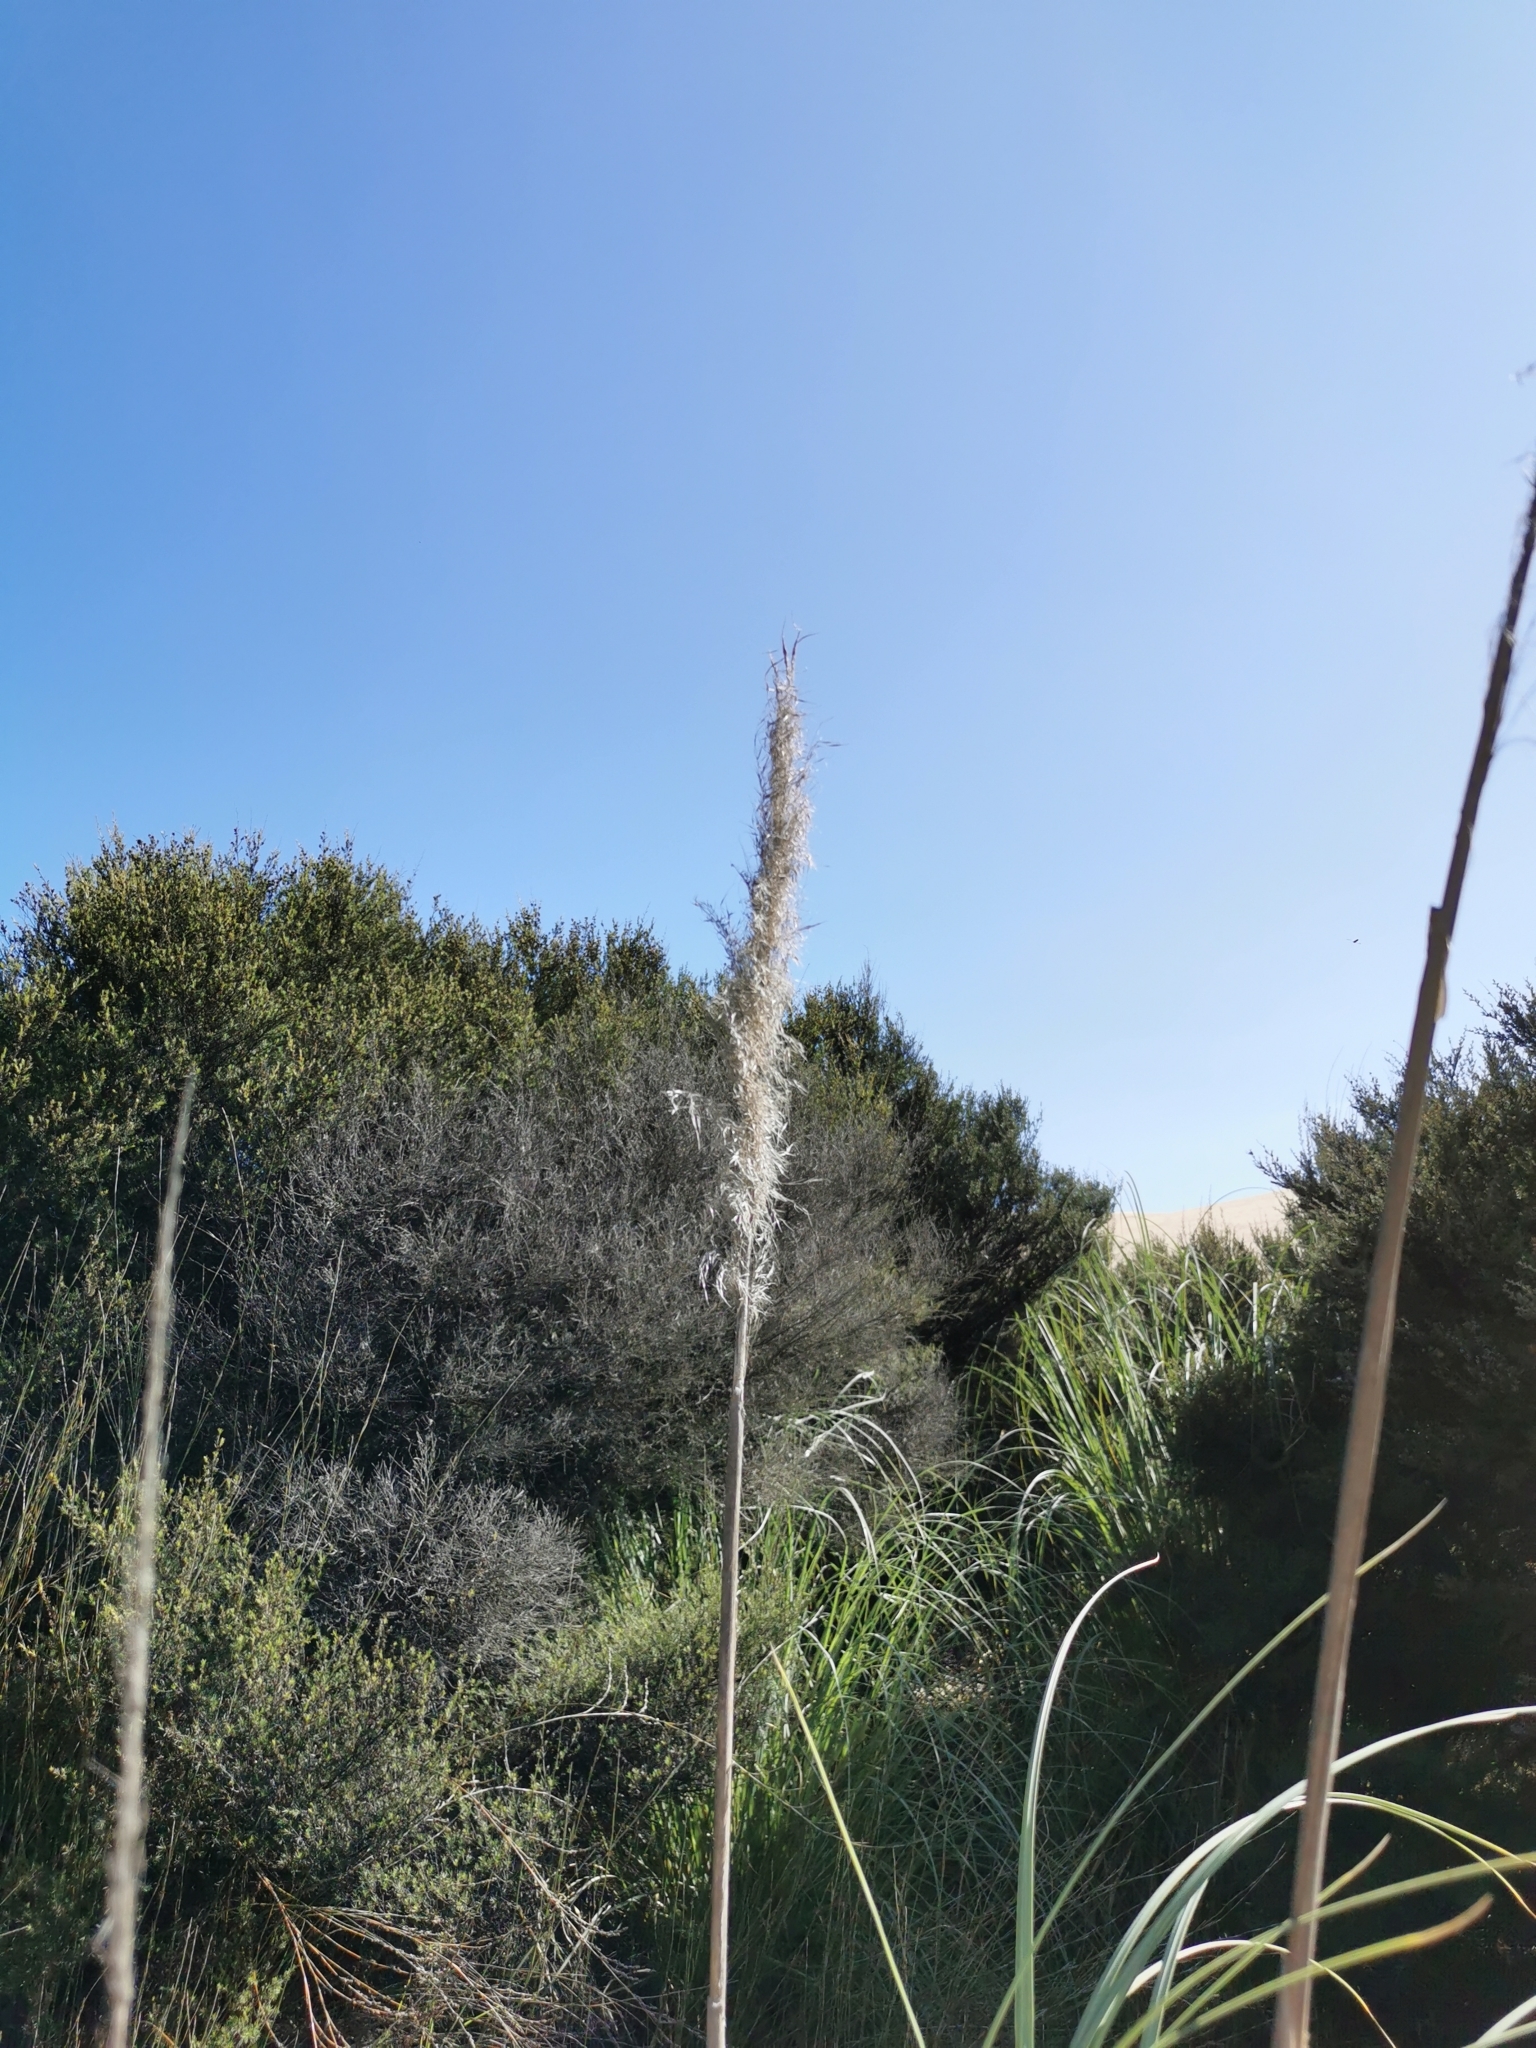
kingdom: Plantae
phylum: Tracheophyta
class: Liliopsida
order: Poales
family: Poaceae
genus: Cortaderia
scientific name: Cortaderia selloana
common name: Uruguayan pampas grass
